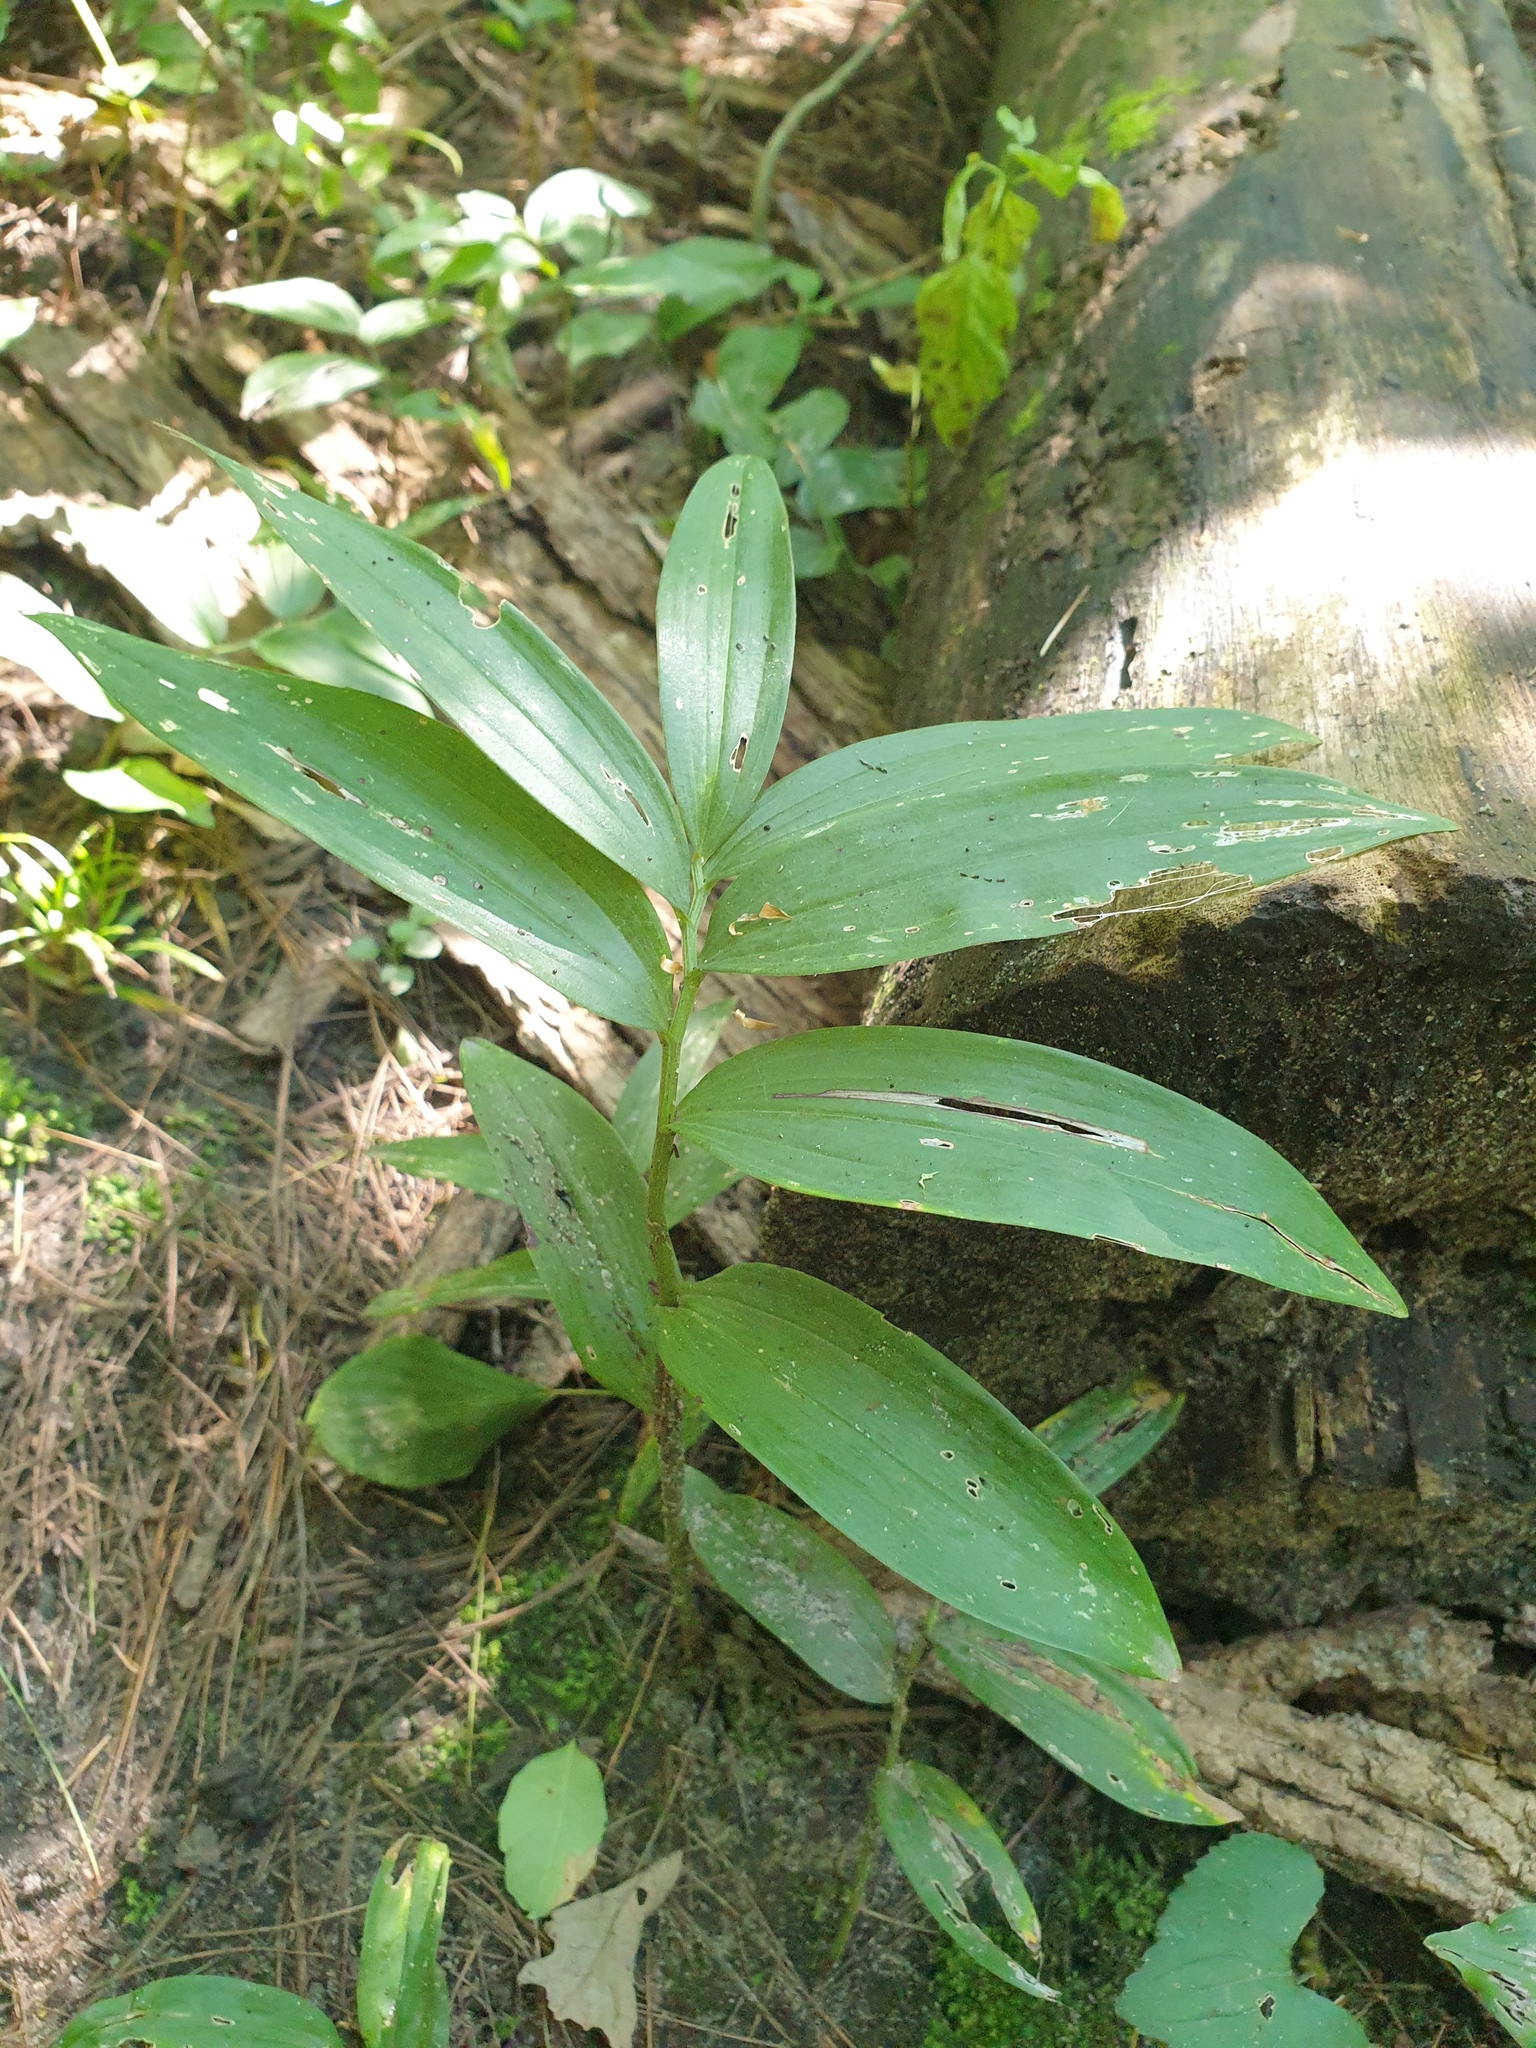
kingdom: Plantae
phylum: Tracheophyta
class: Liliopsida
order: Asparagales
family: Asparagaceae
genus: Maianthemum
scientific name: Maianthemum stellatum
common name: Little false solomon's seal
